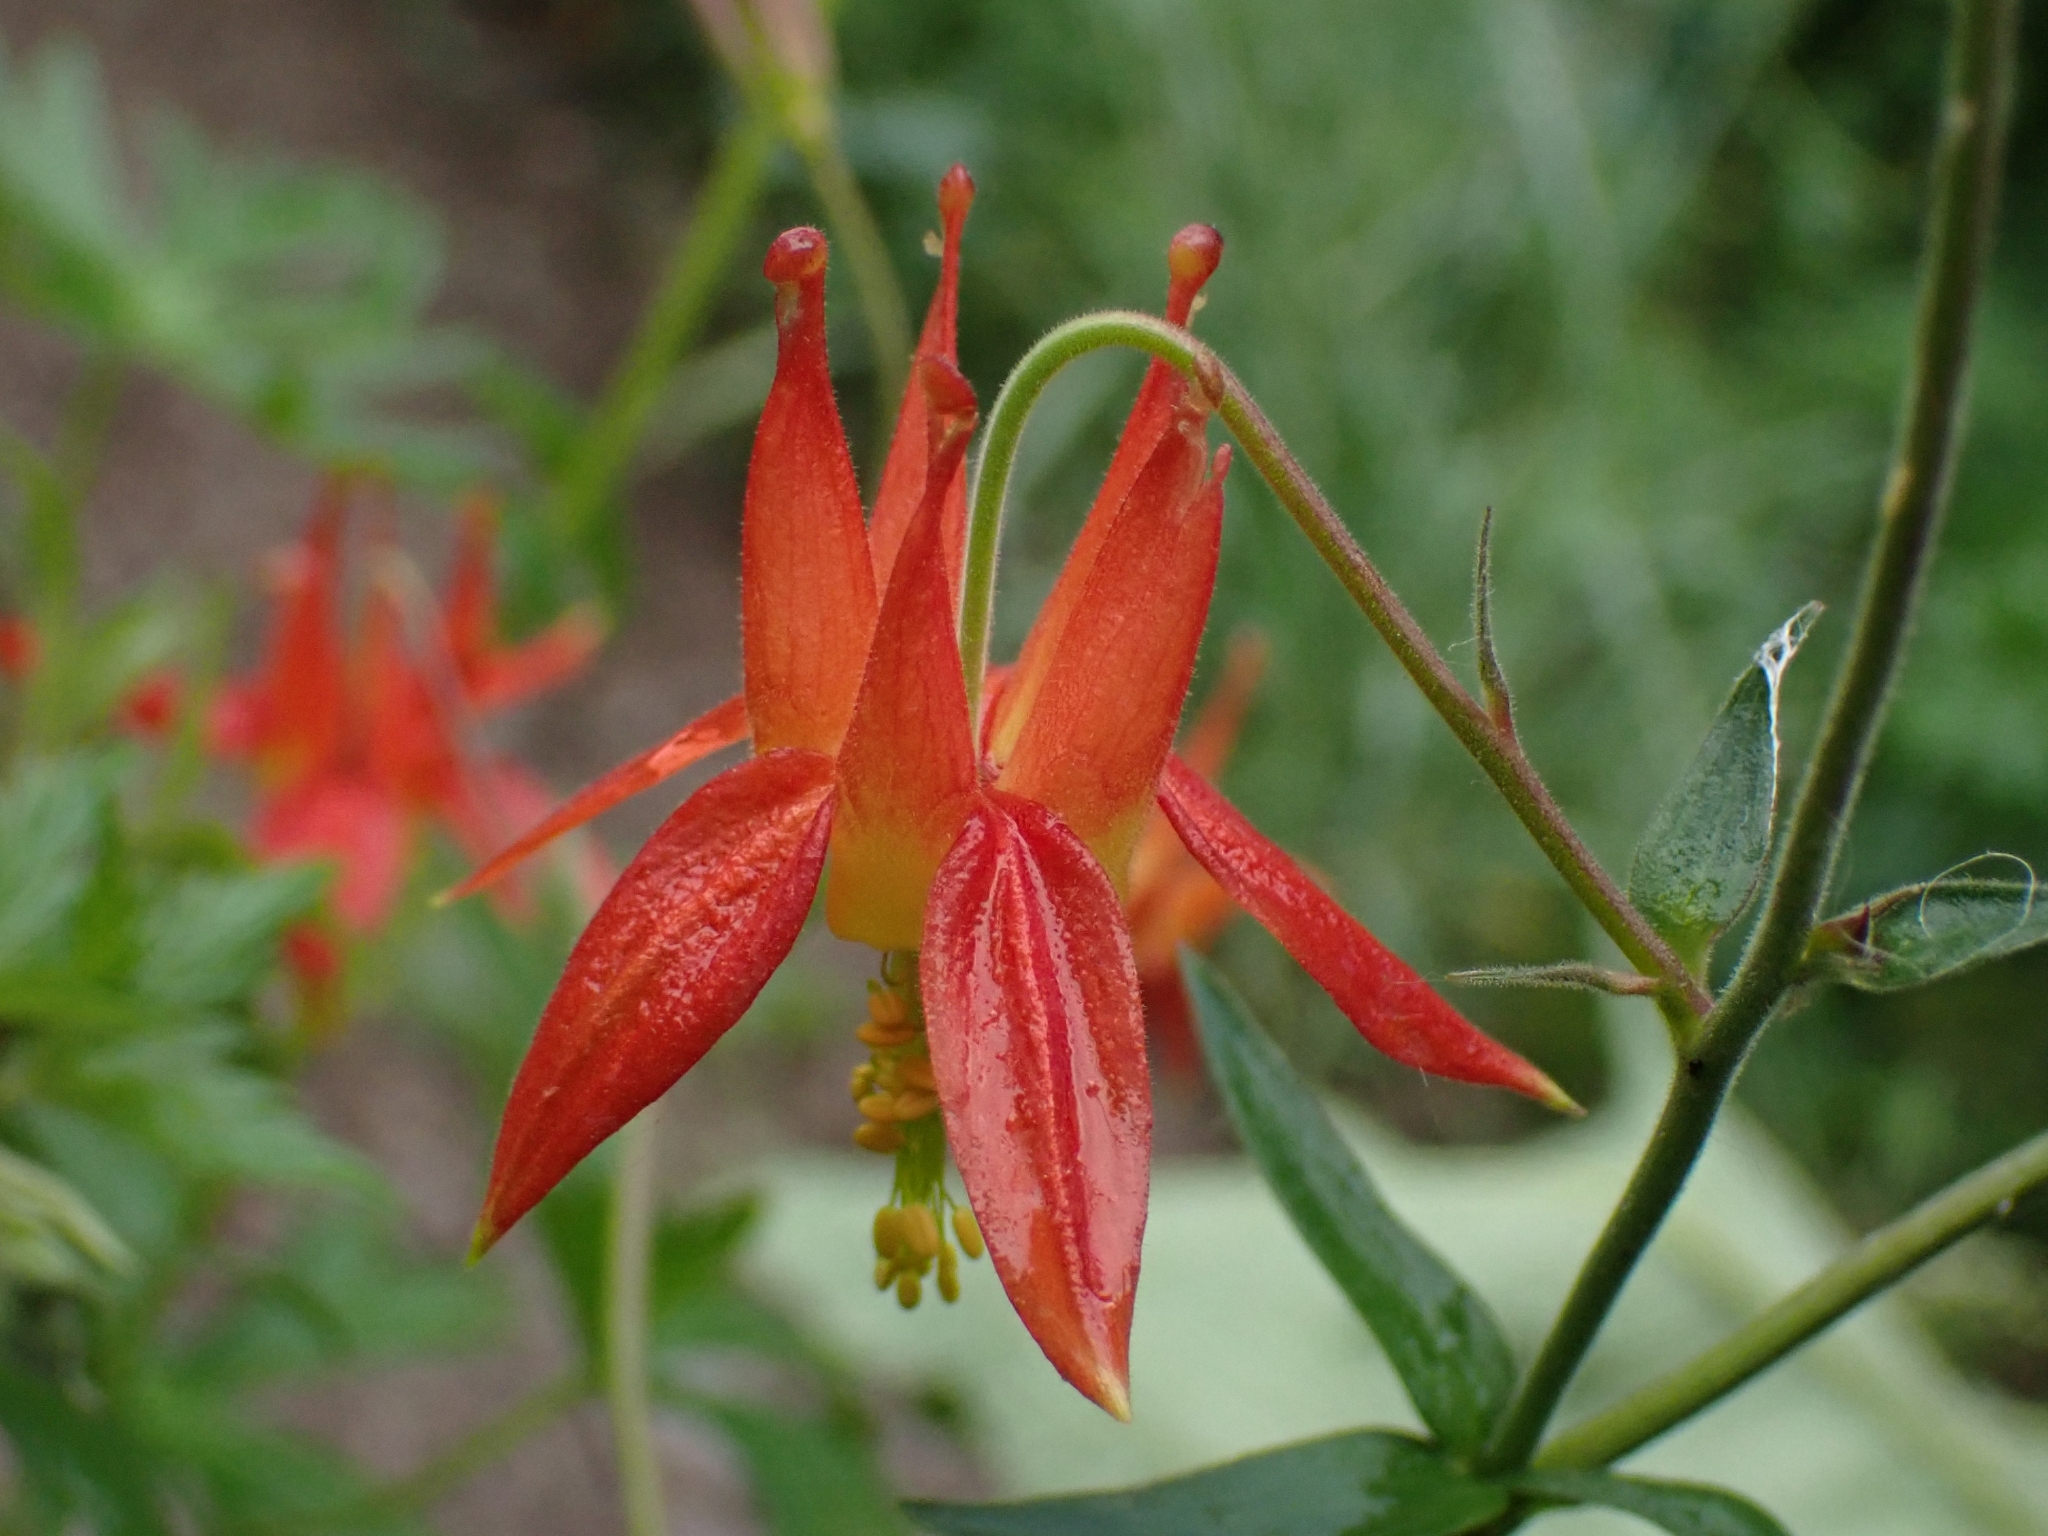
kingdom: Plantae
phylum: Tracheophyta
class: Magnoliopsida
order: Ranunculales
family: Ranunculaceae
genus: Aquilegia
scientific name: Aquilegia formosa
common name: Sitka columbine
